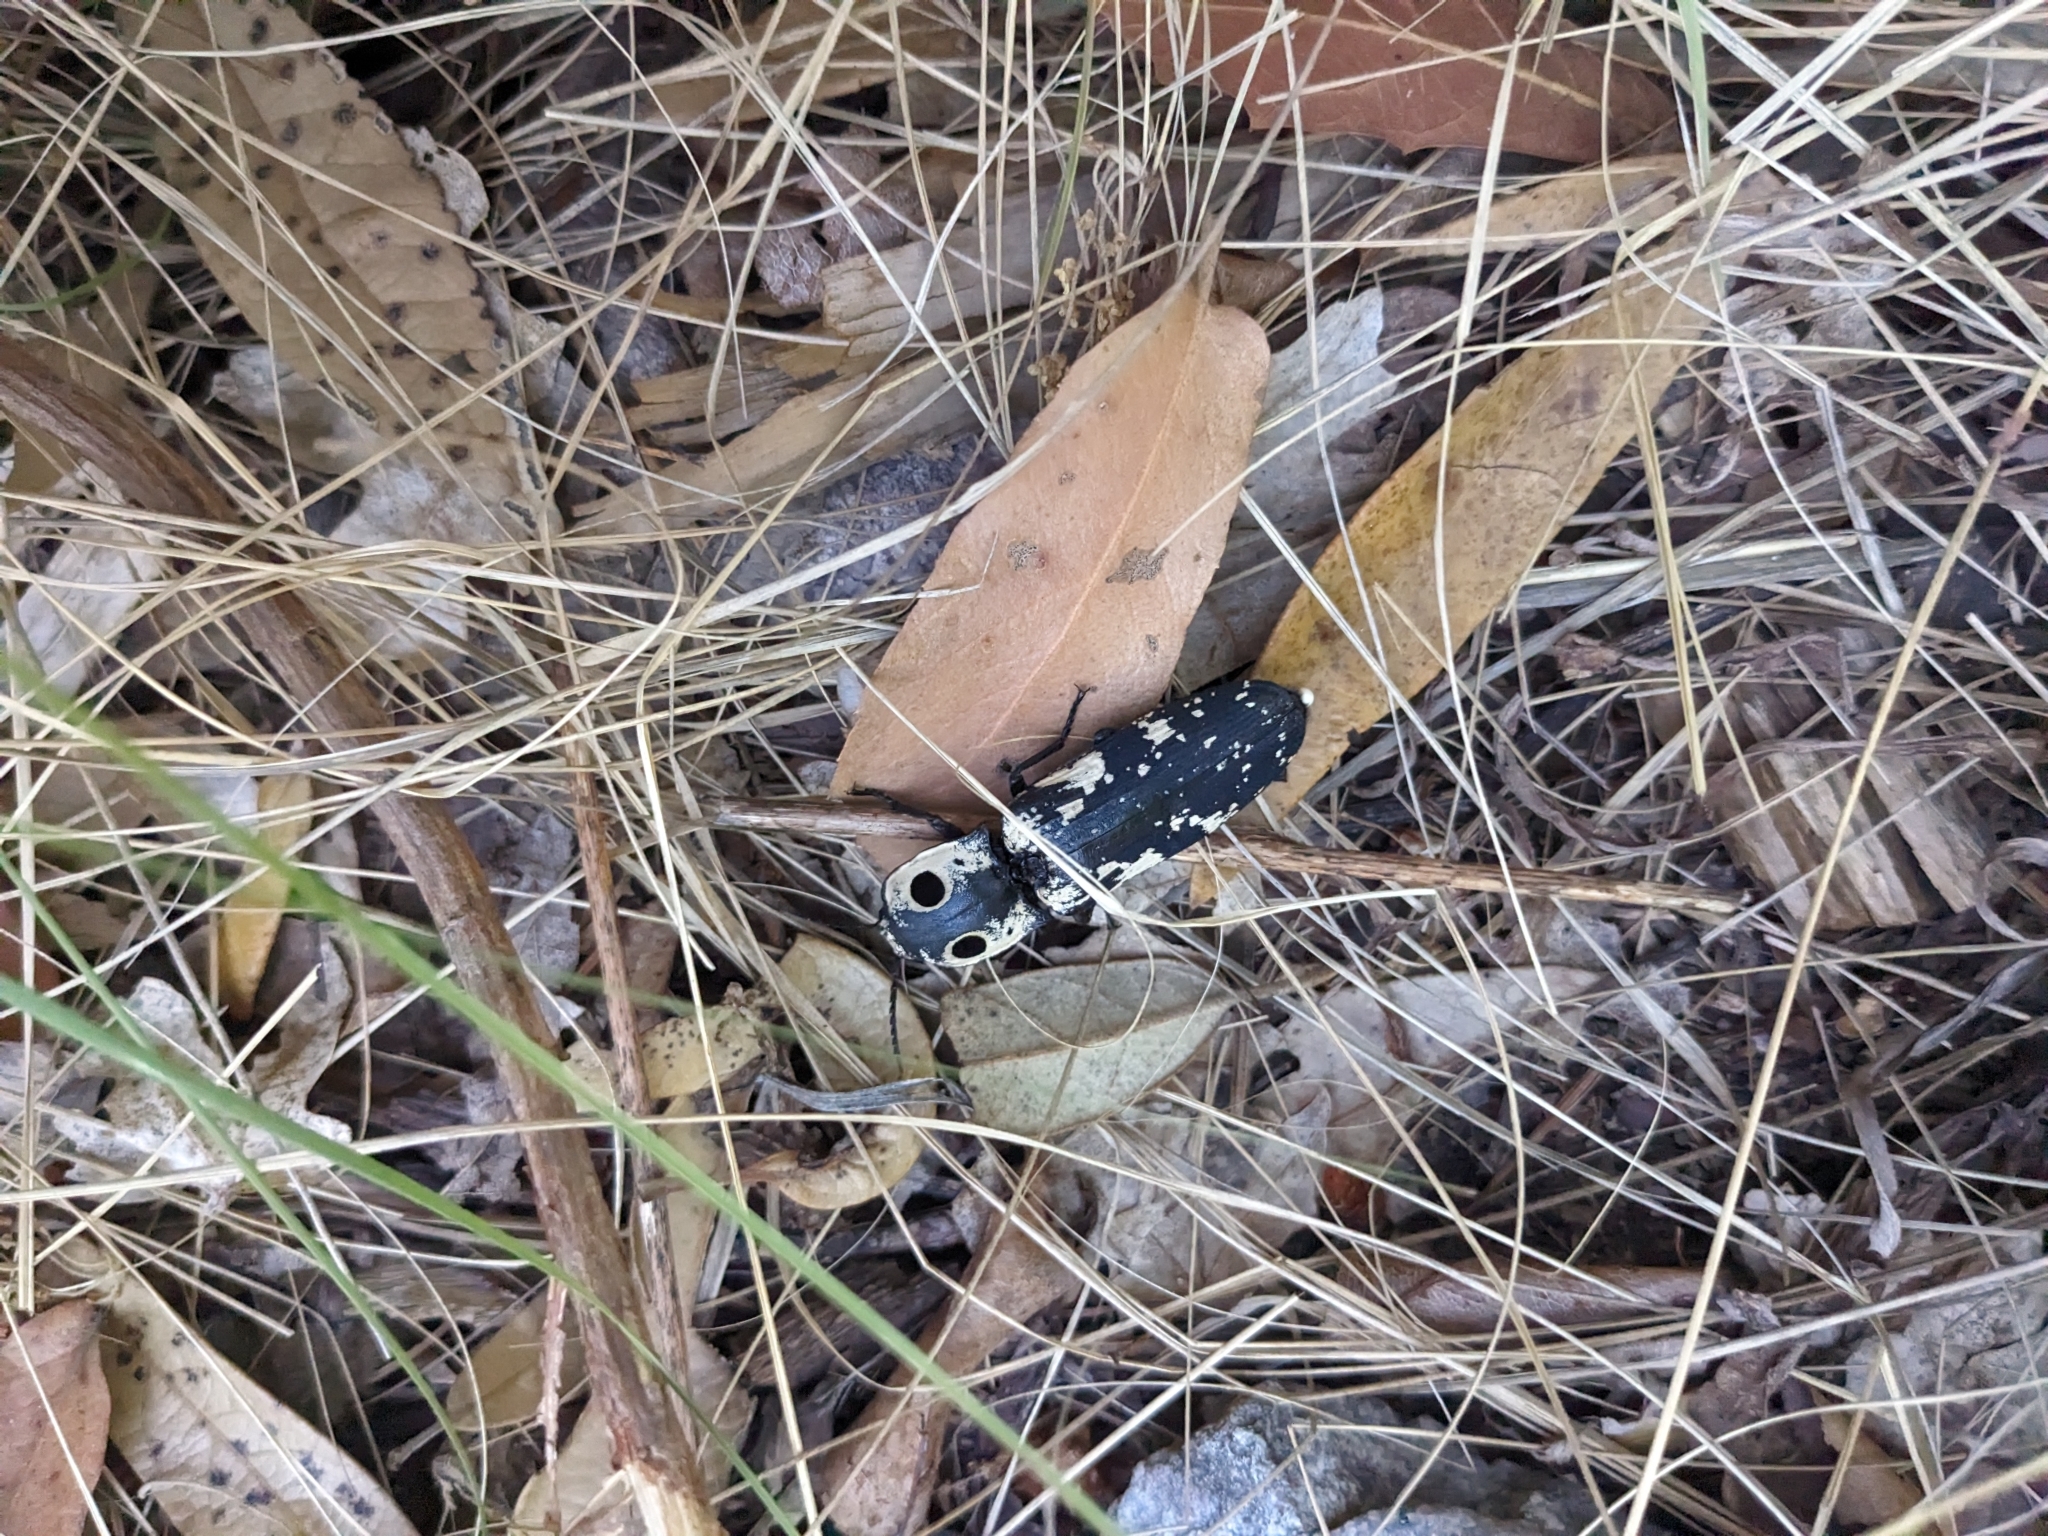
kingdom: Animalia
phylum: Arthropoda
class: Insecta
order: Coleoptera
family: Elateridae
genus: Alaus
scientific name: Alaus zunianus
